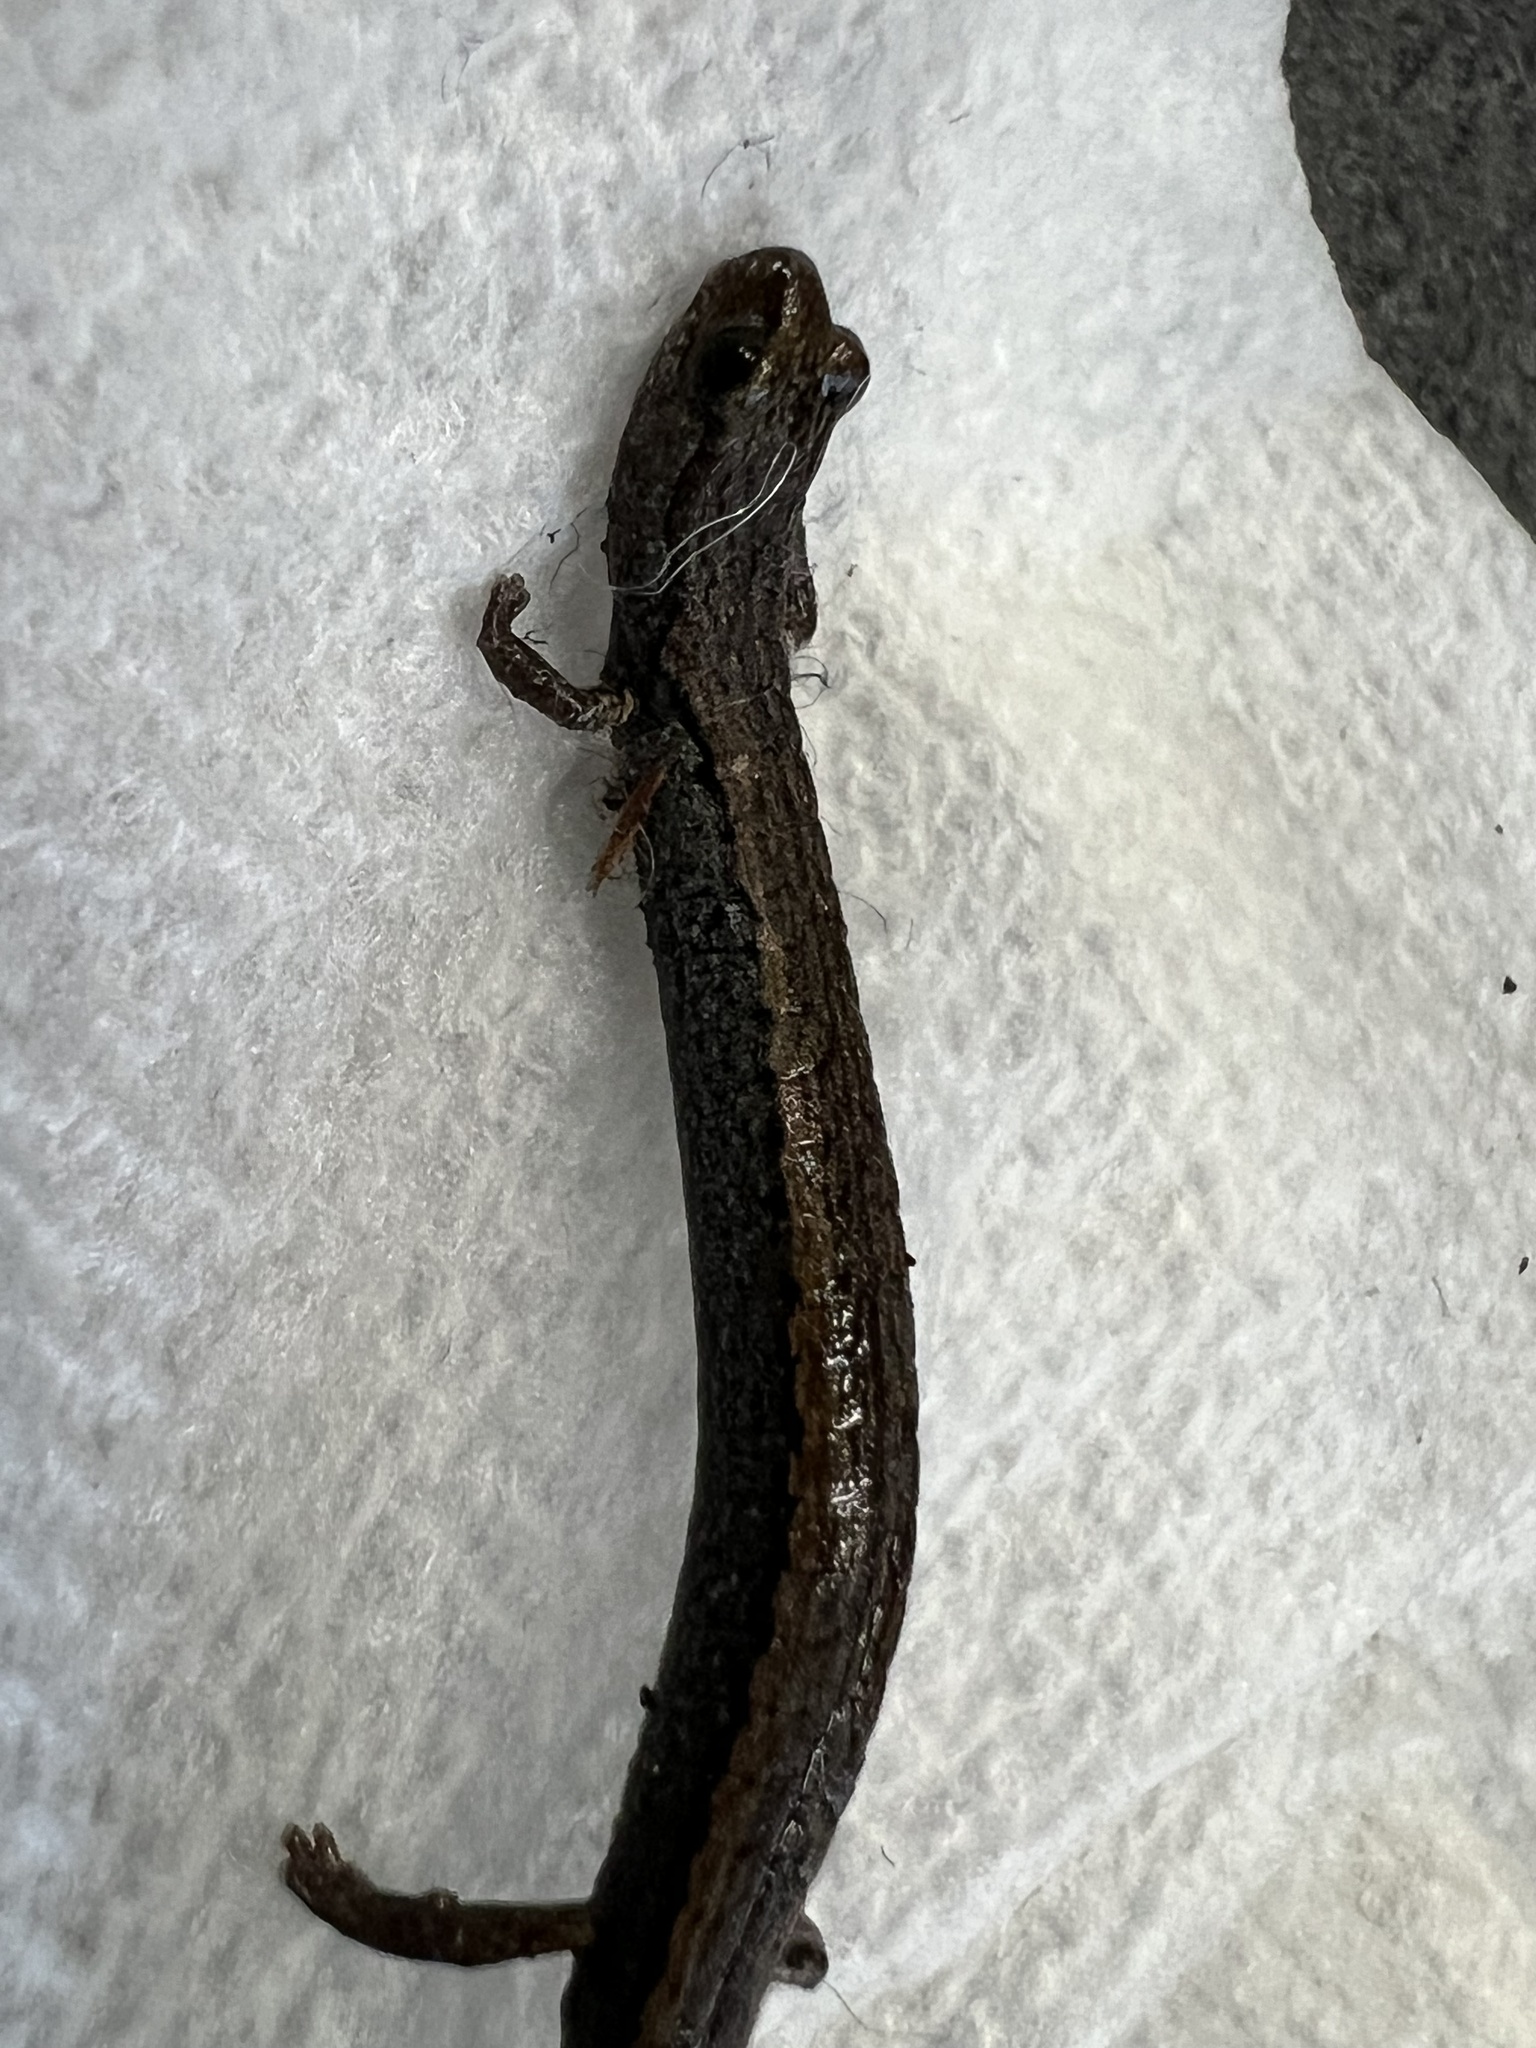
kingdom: Animalia
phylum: Chordata
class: Amphibia
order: Caudata
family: Plethodontidae
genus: Batrachoseps
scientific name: Batrachoseps attenuatus
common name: California slender salamander
